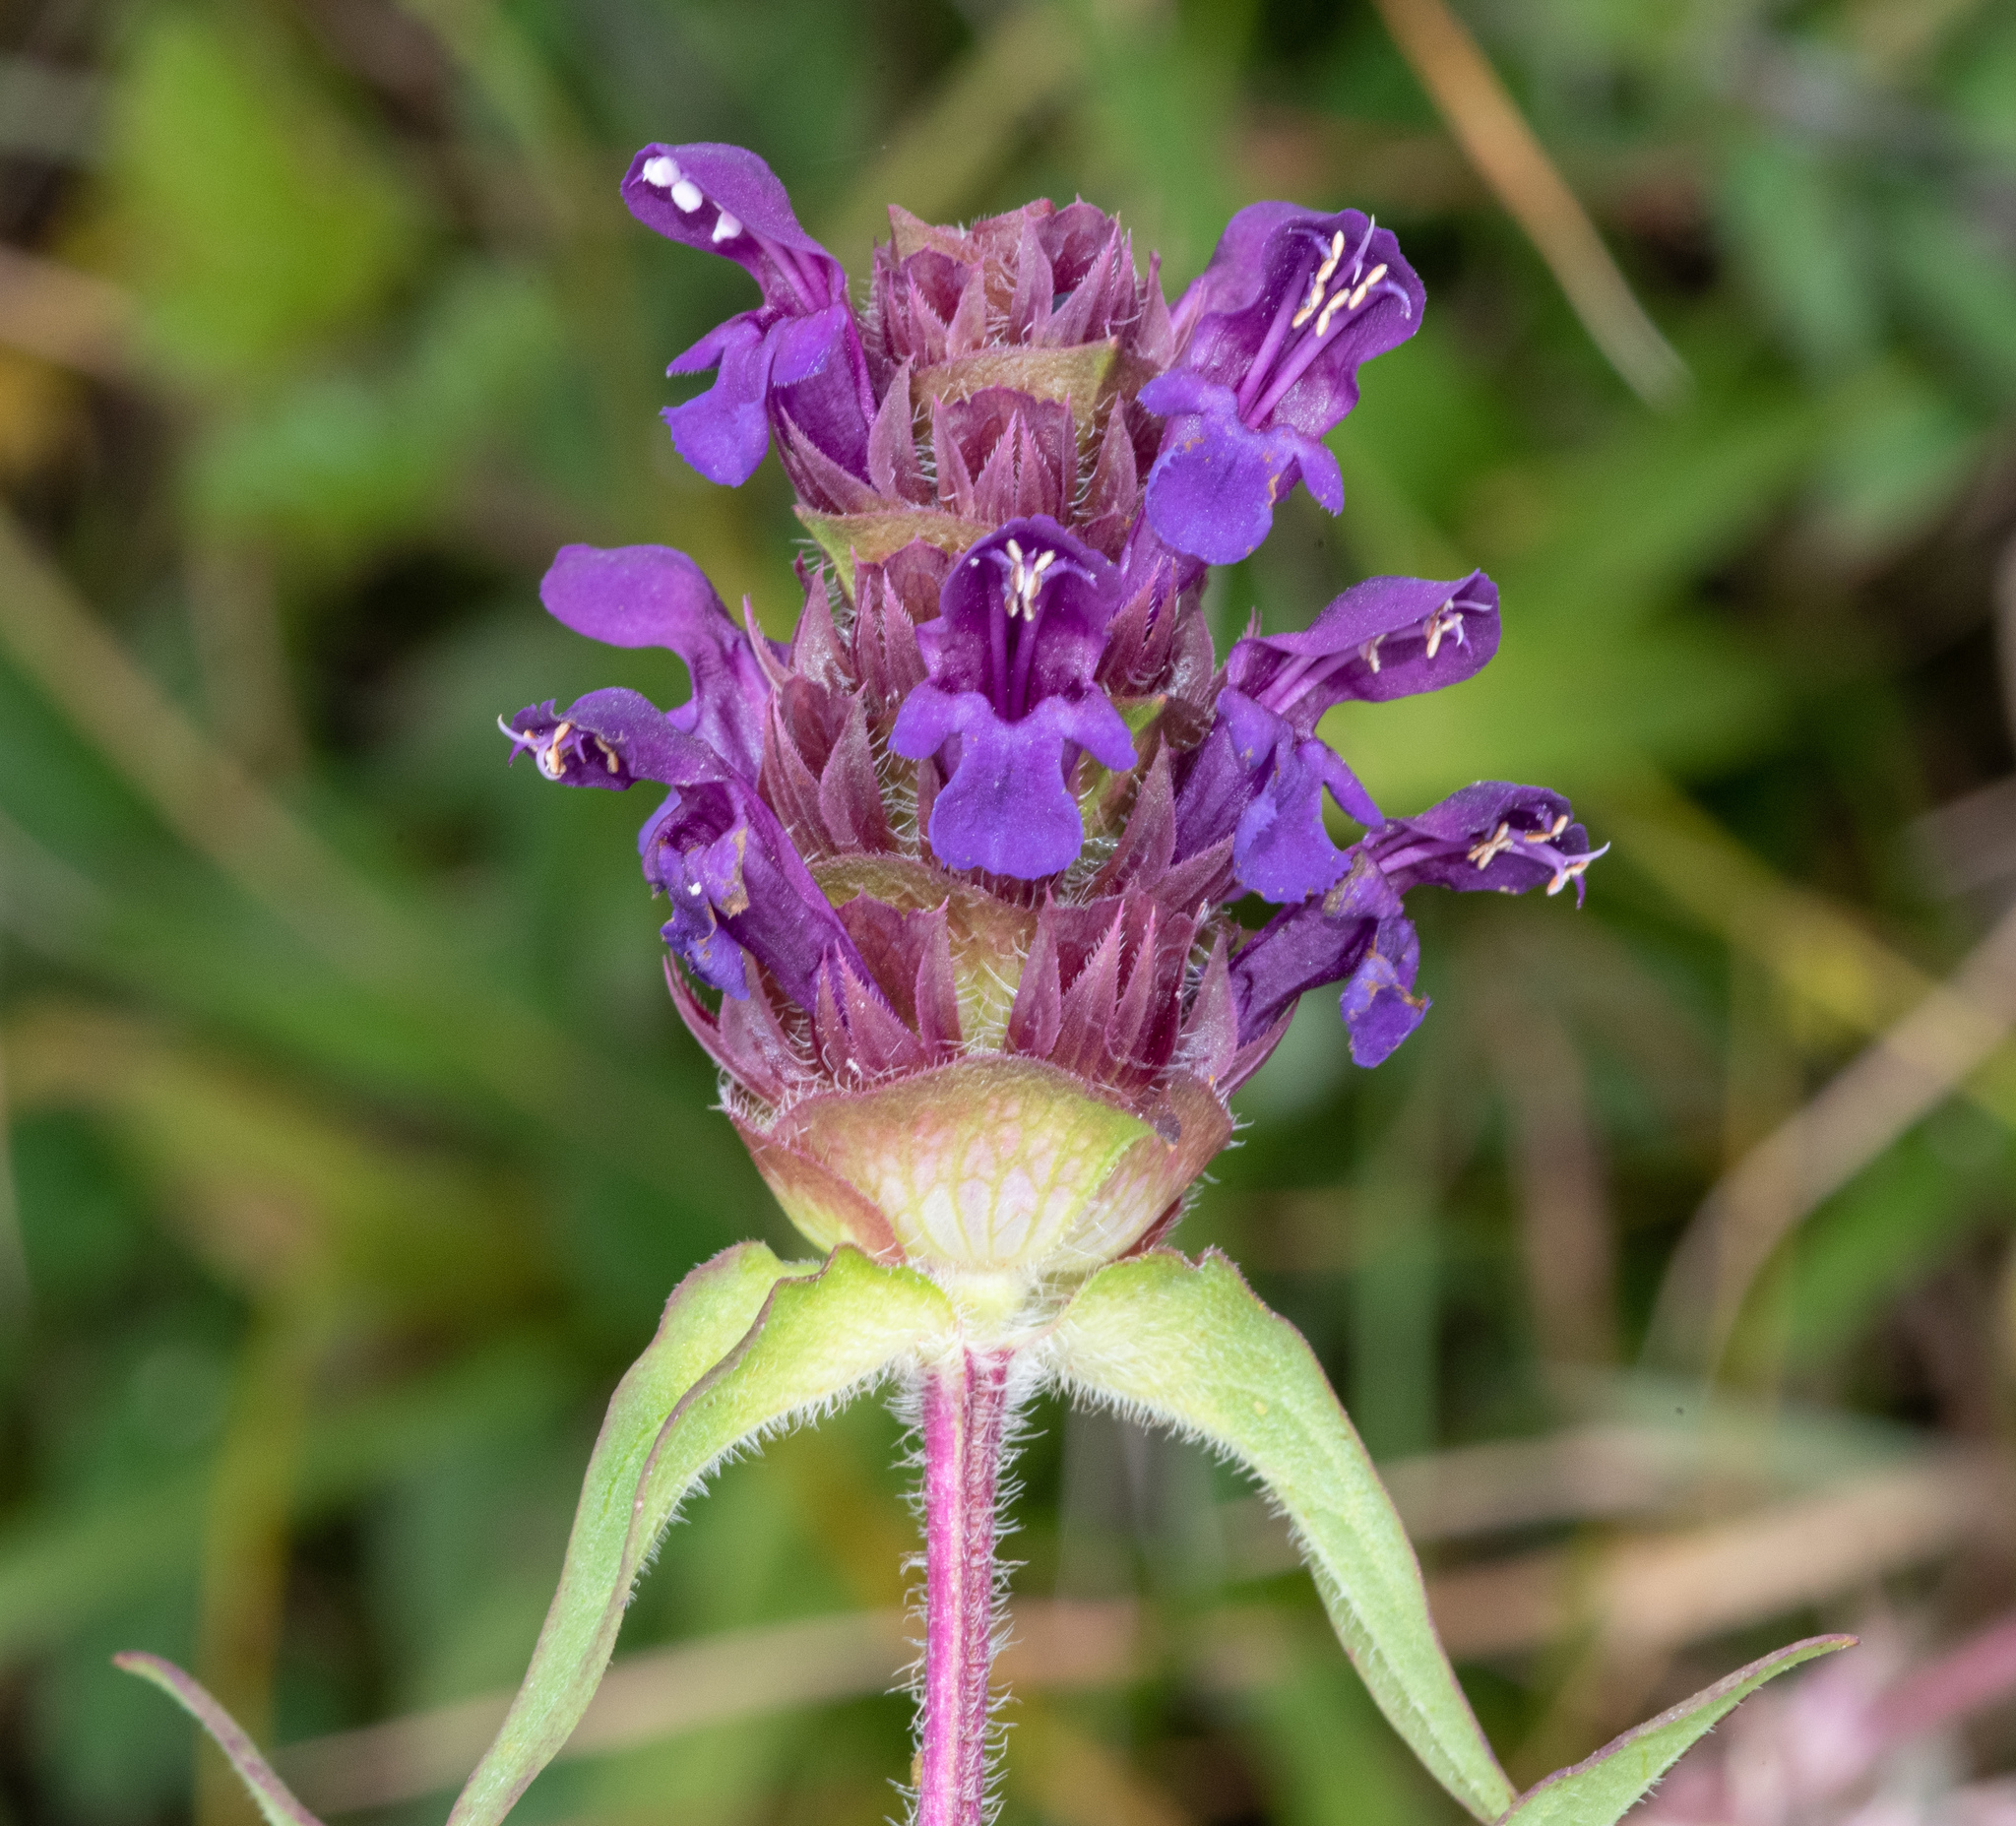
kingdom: Plantae
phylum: Tracheophyta
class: Magnoliopsida
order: Lamiales
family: Lamiaceae
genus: Prunella
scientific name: Prunella vulgaris
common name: Heal-all
